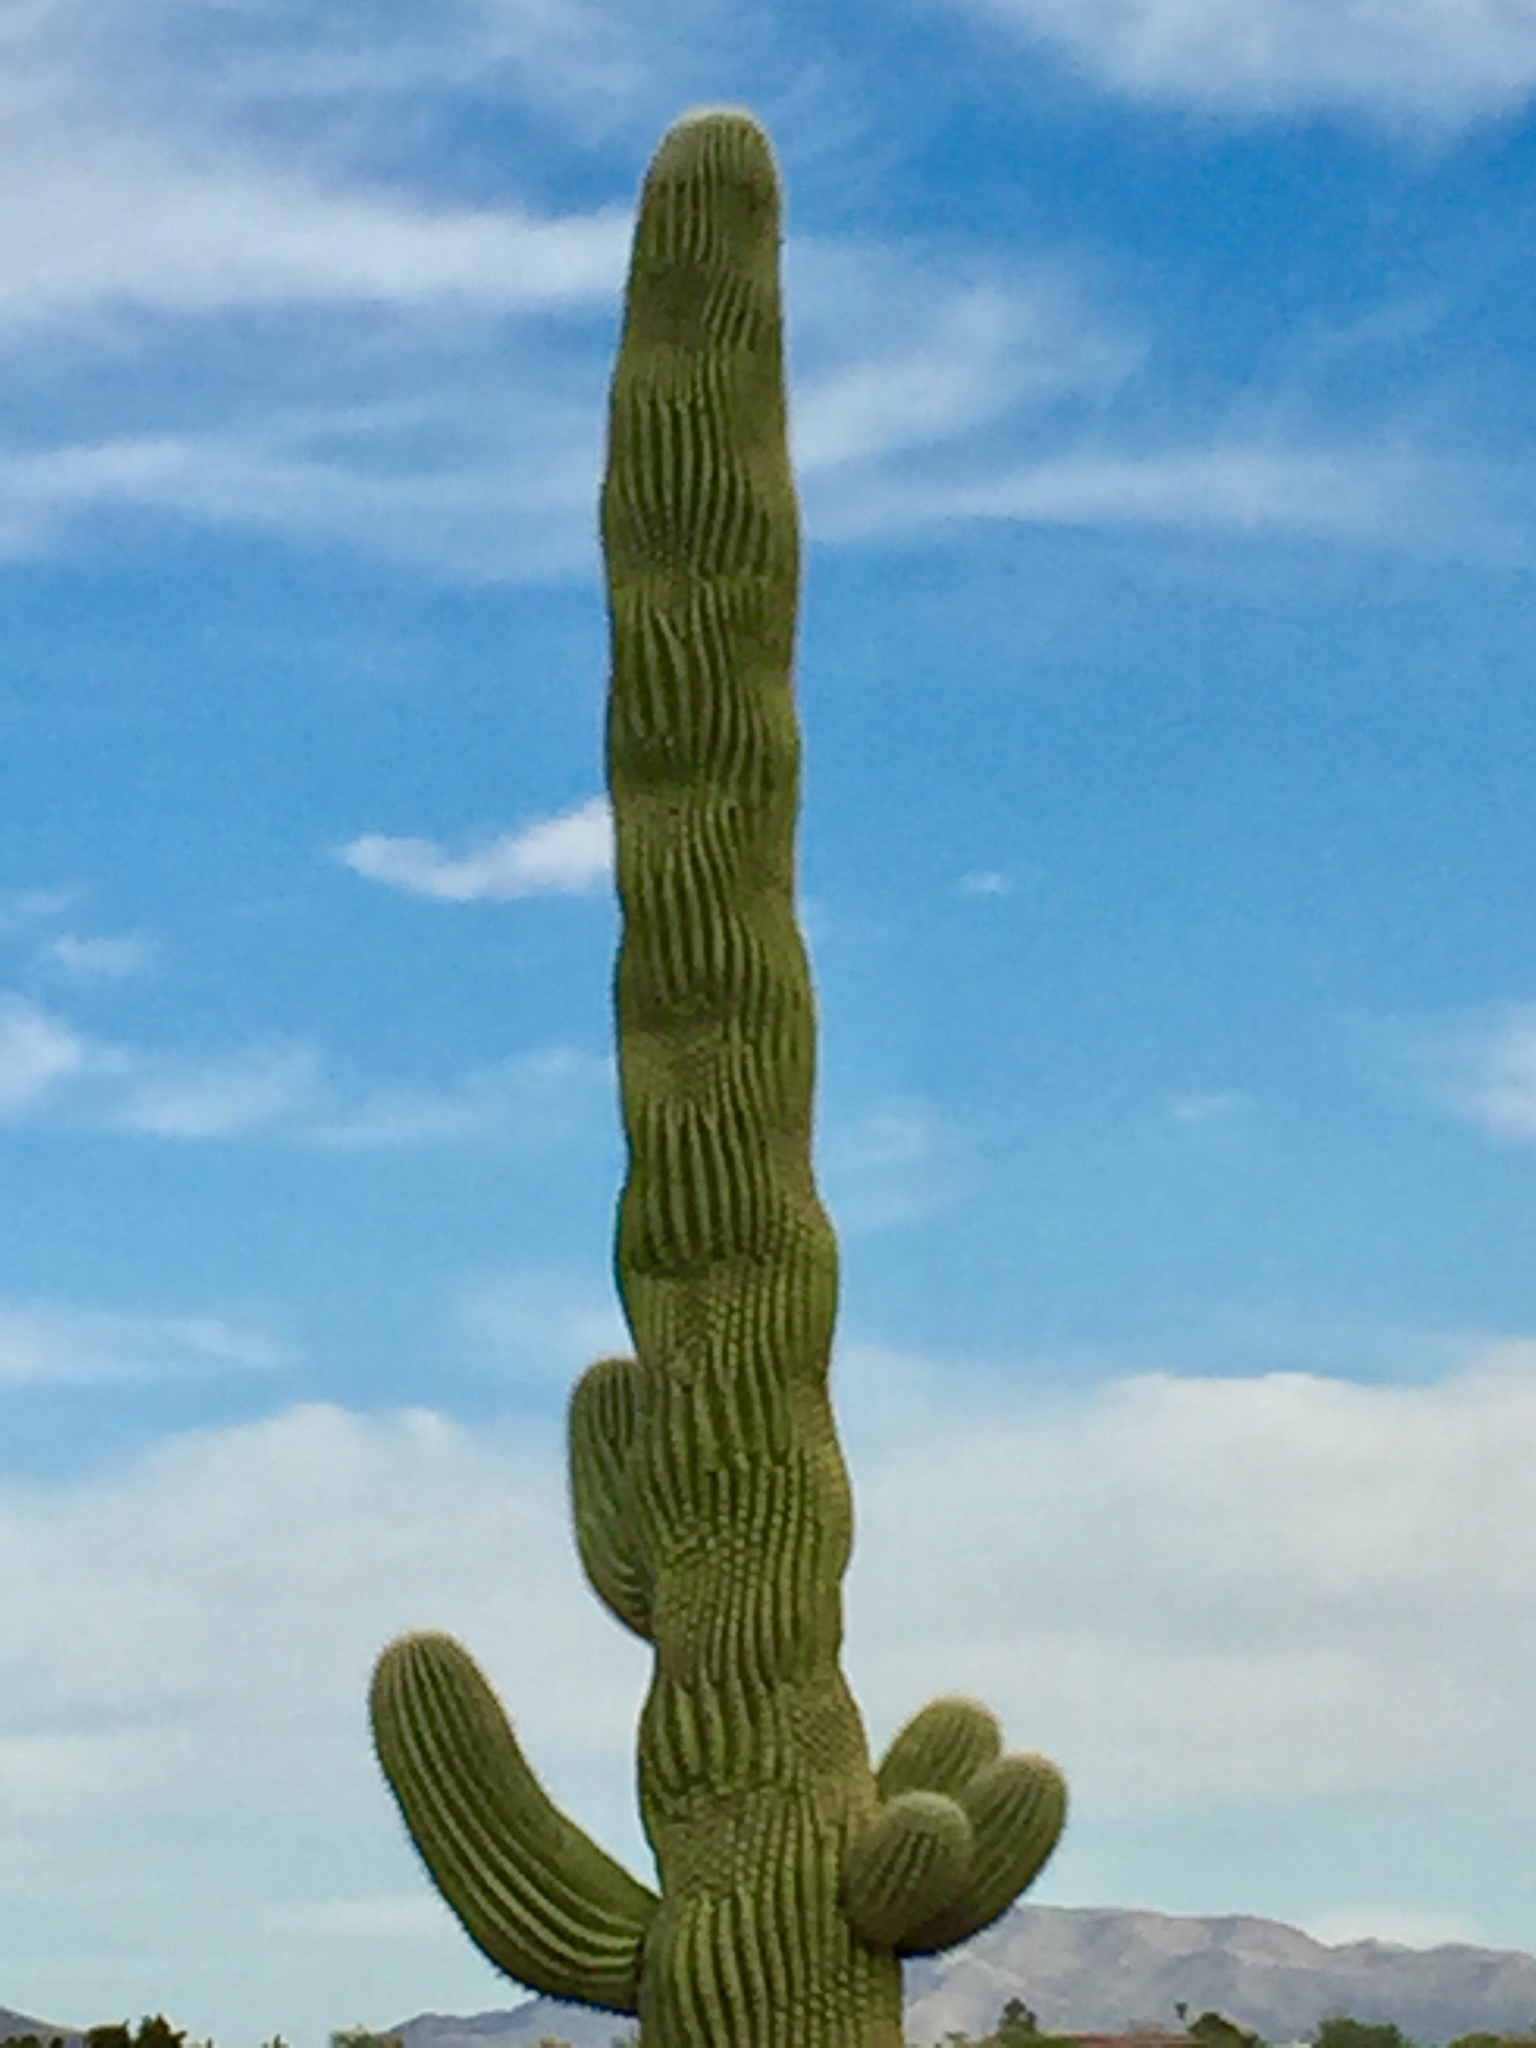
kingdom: Plantae
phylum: Tracheophyta
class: Magnoliopsida
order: Caryophyllales
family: Cactaceae
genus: Carnegiea
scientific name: Carnegiea gigantea
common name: Saguaro
